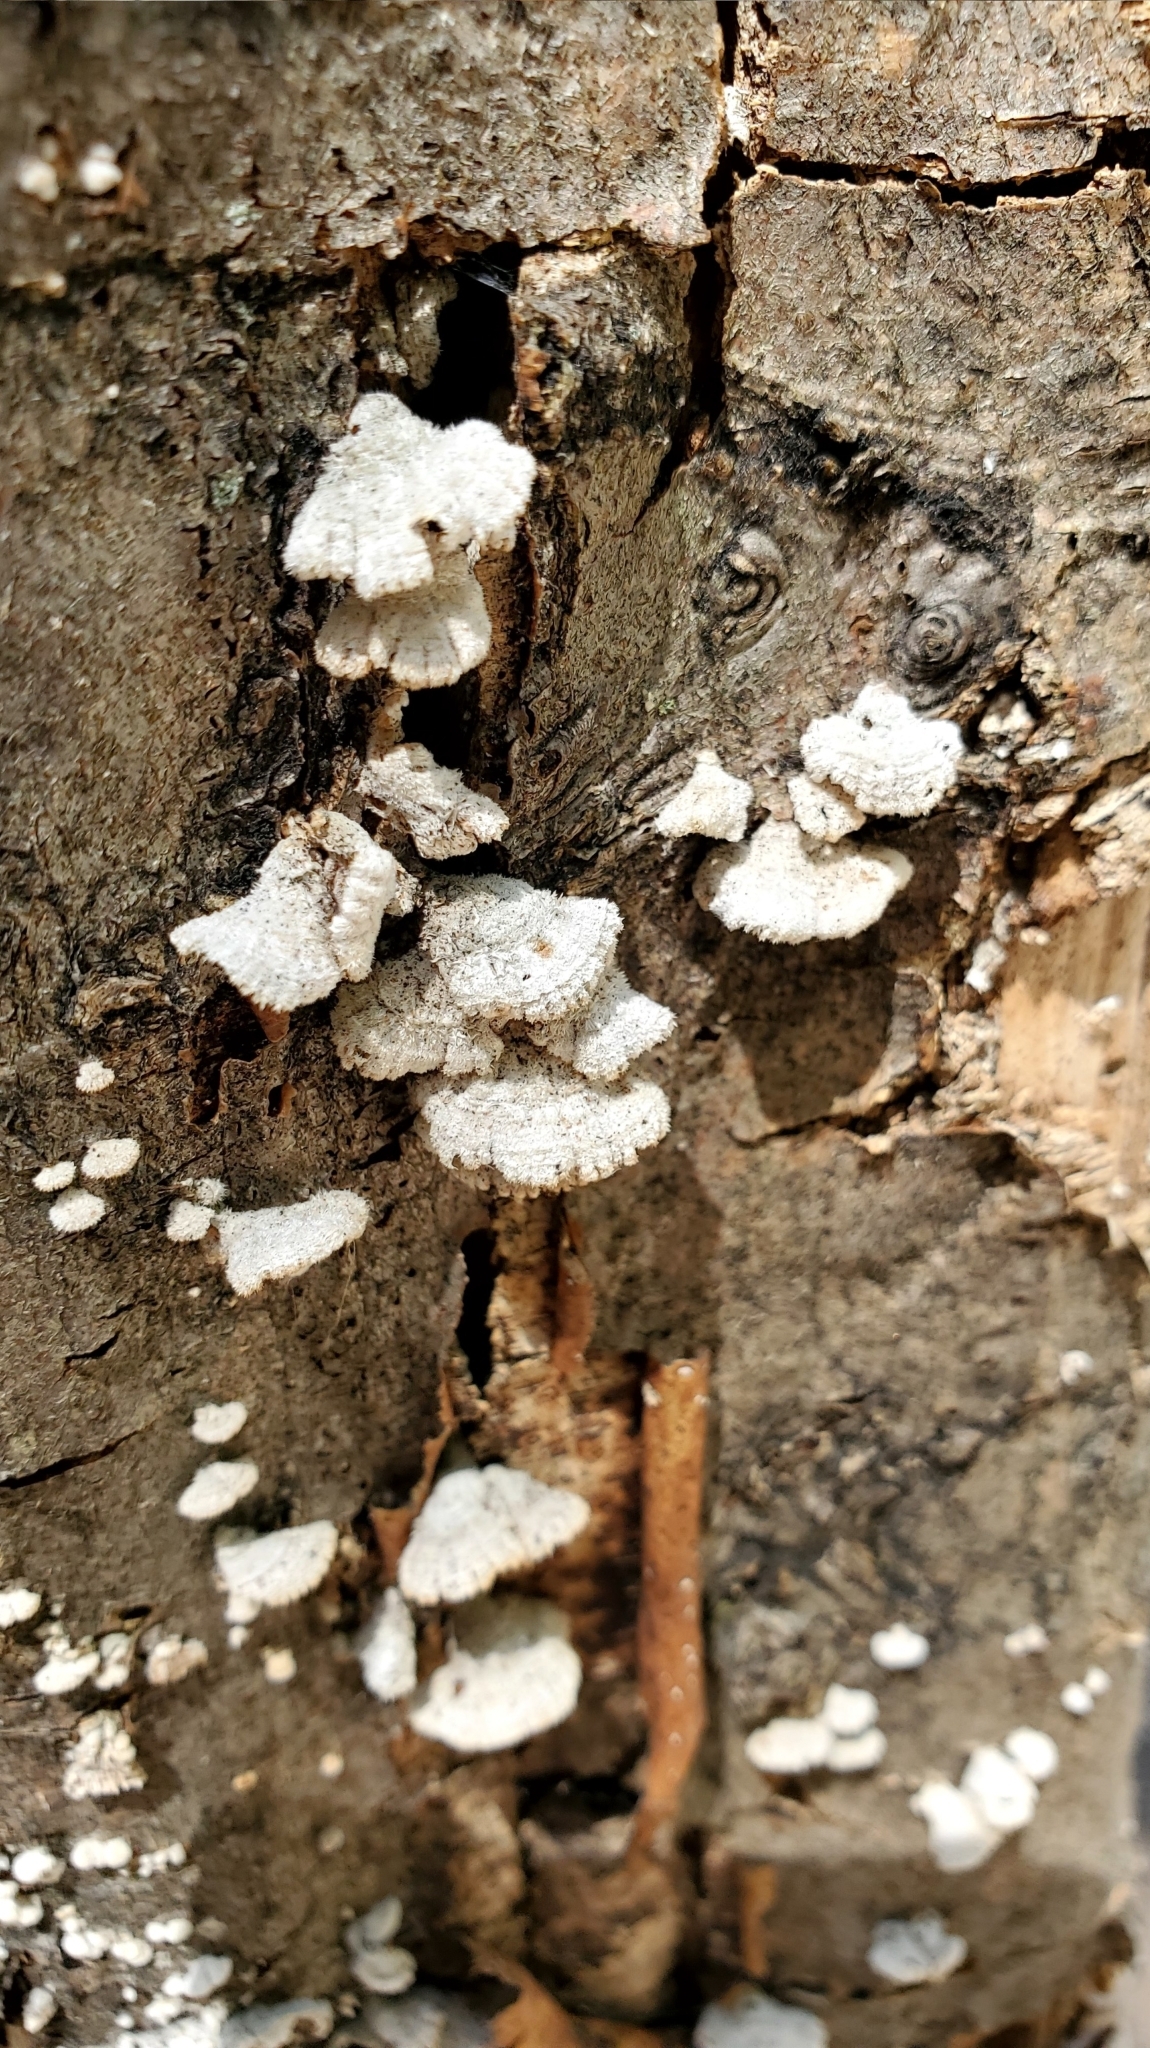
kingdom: Fungi
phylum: Basidiomycota
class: Agaricomycetes
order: Agaricales
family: Schizophyllaceae
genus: Schizophyllum
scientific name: Schizophyllum commune
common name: Common porecrust
